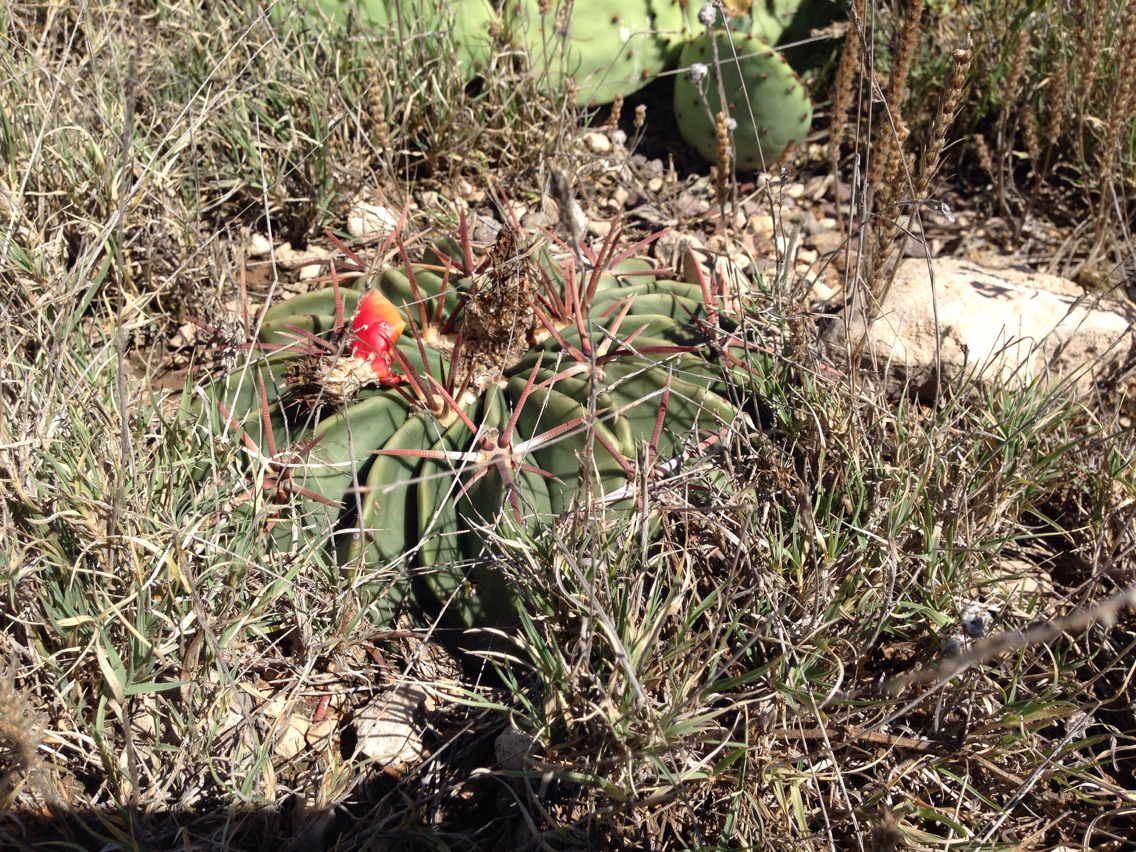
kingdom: Plantae
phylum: Tracheophyta
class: Magnoliopsida
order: Caryophyllales
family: Cactaceae
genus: Echinocactus
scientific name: Echinocactus texensis
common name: Devil's pincushion
